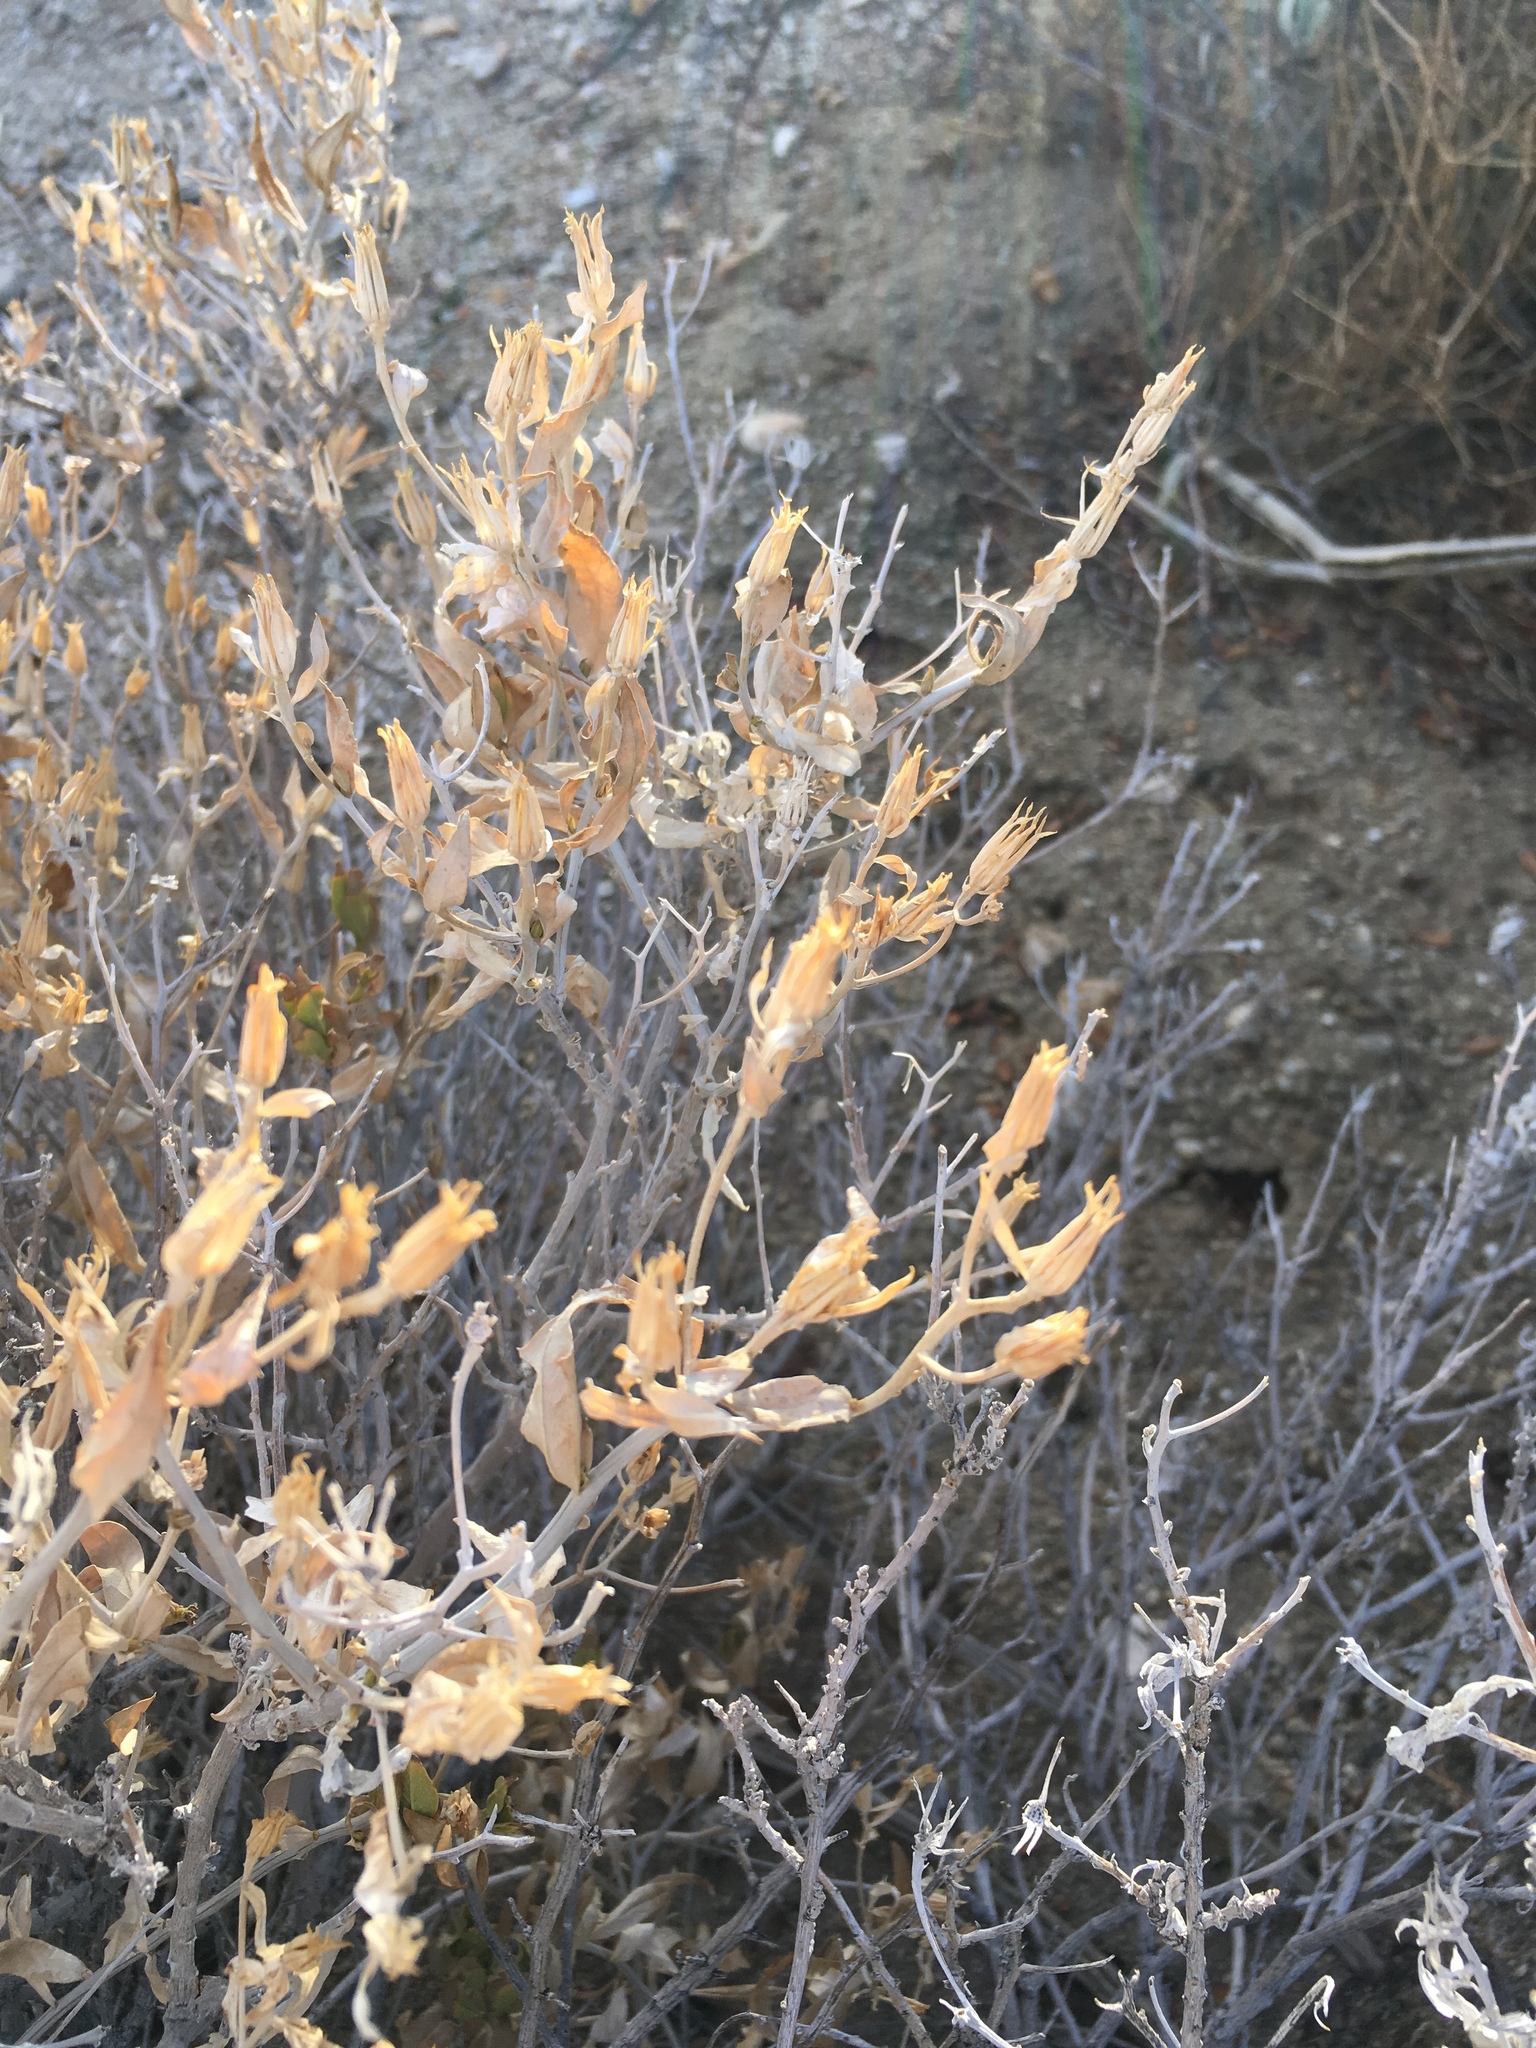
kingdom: Plantae
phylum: Tracheophyta
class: Magnoliopsida
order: Asterales
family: Asteraceae
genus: Trixis
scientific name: Trixis californica
